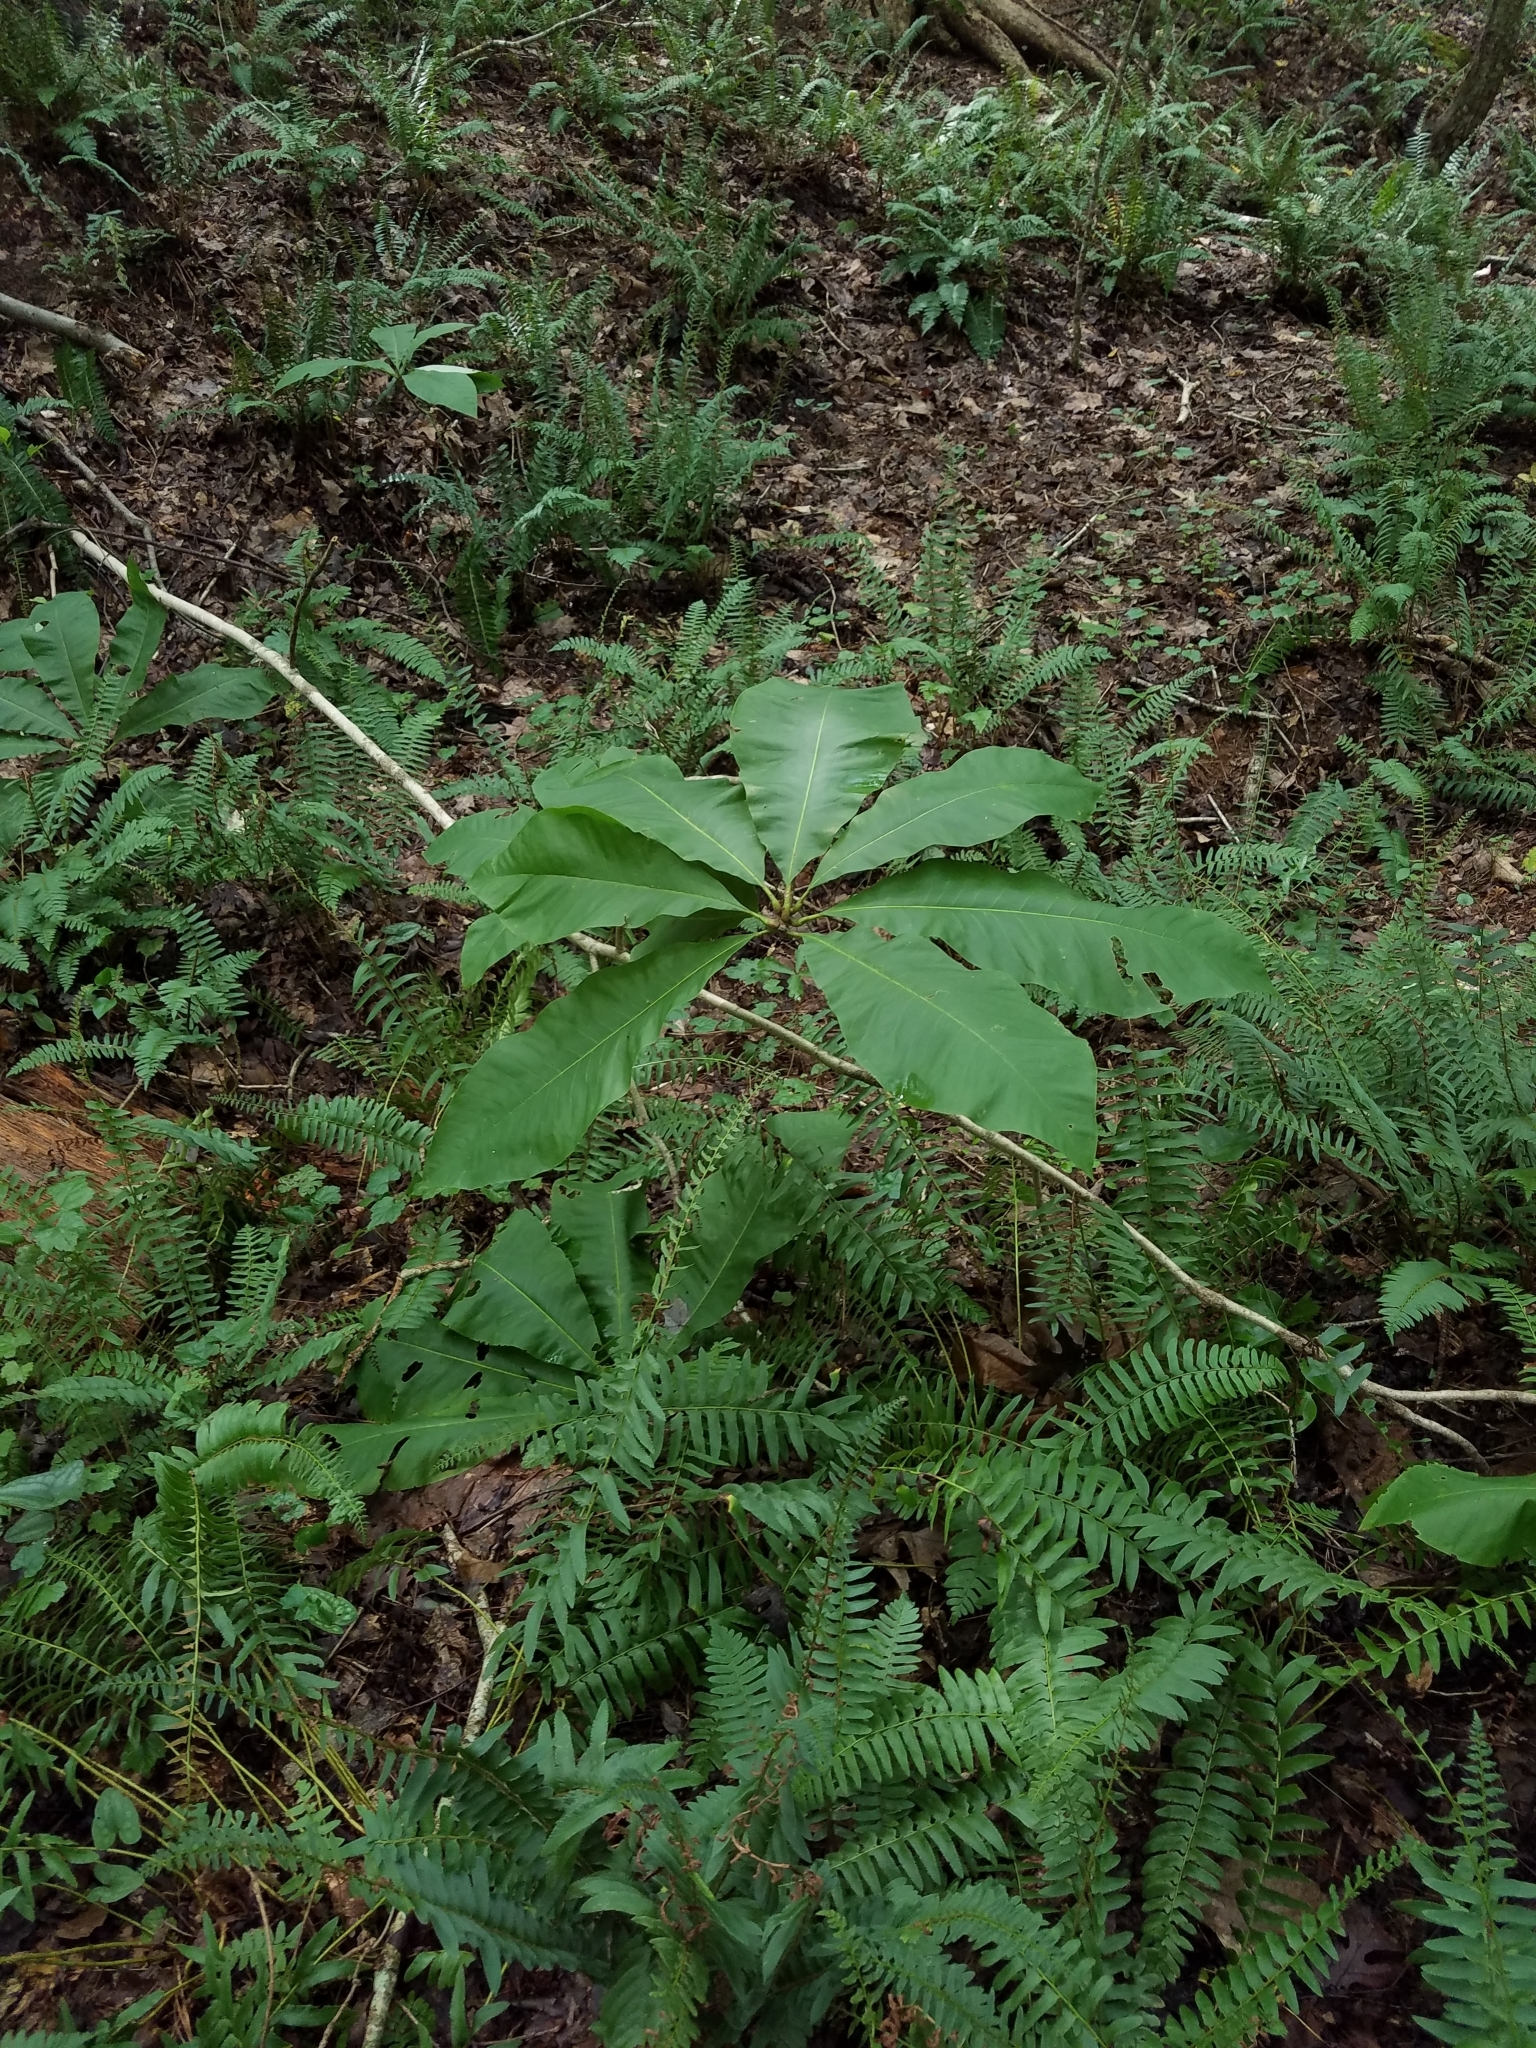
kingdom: Plantae
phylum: Tracheophyta
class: Magnoliopsida
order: Magnoliales
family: Magnoliaceae
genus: Magnolia
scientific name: Magnolia tripetala
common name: Umbrella magnolia
